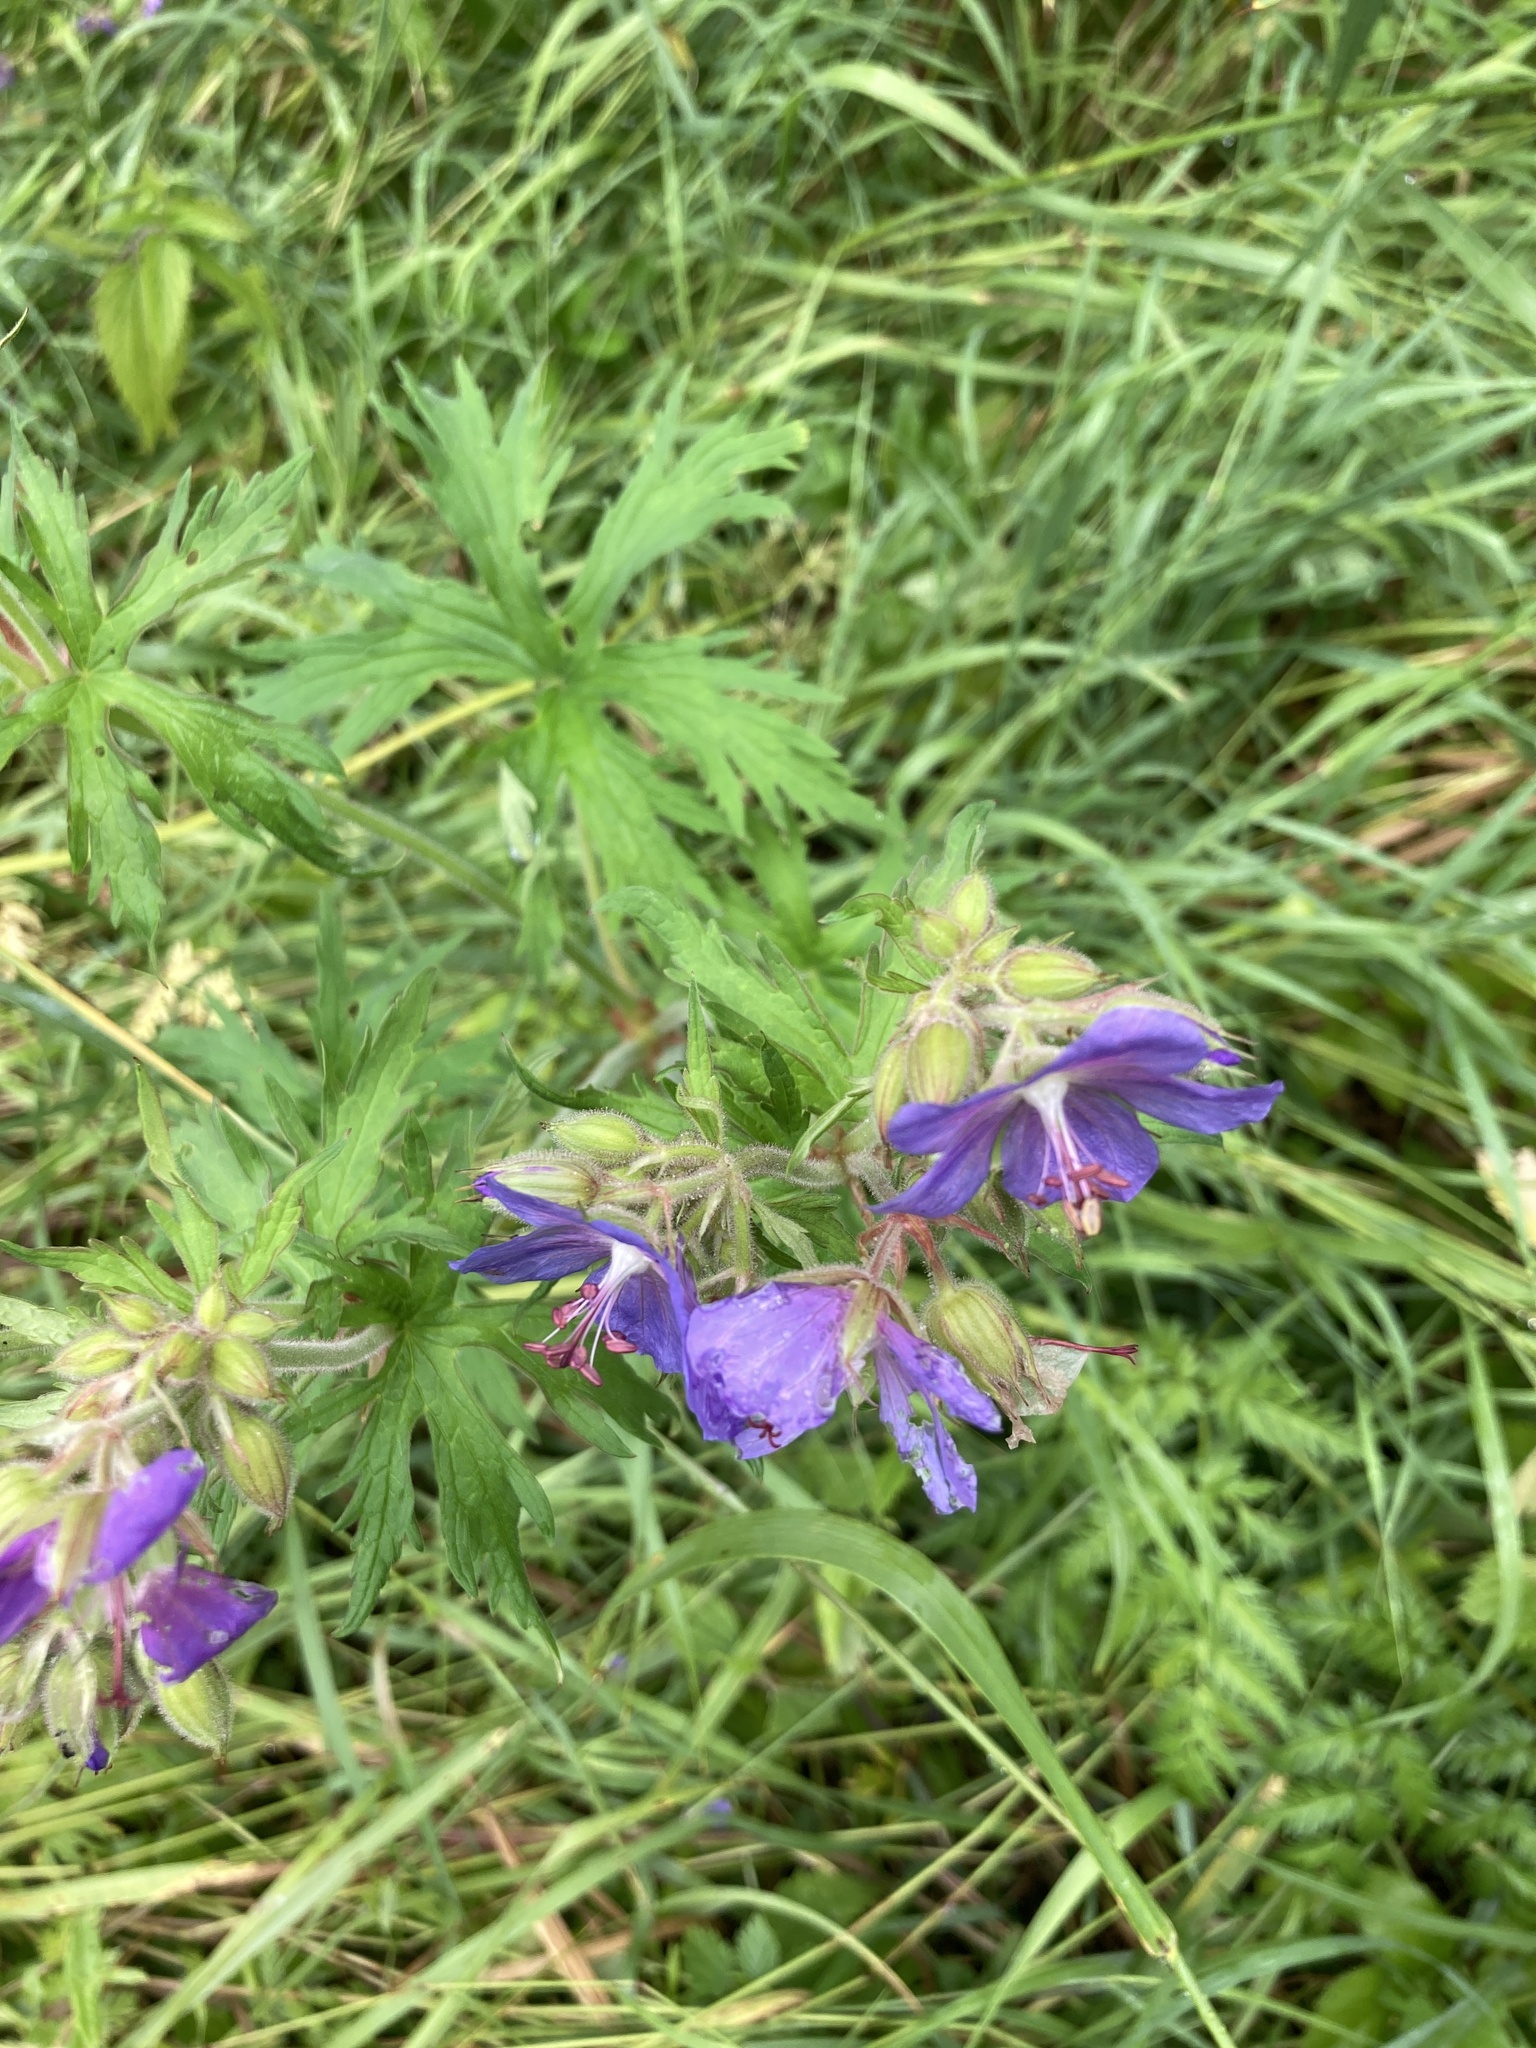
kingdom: Plantae
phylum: Tracheophyta
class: Magnoliopsida
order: Geraniales
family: Geraniaceae
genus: Geranium
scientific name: Geranium pratense
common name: Meadow crane's-bill
